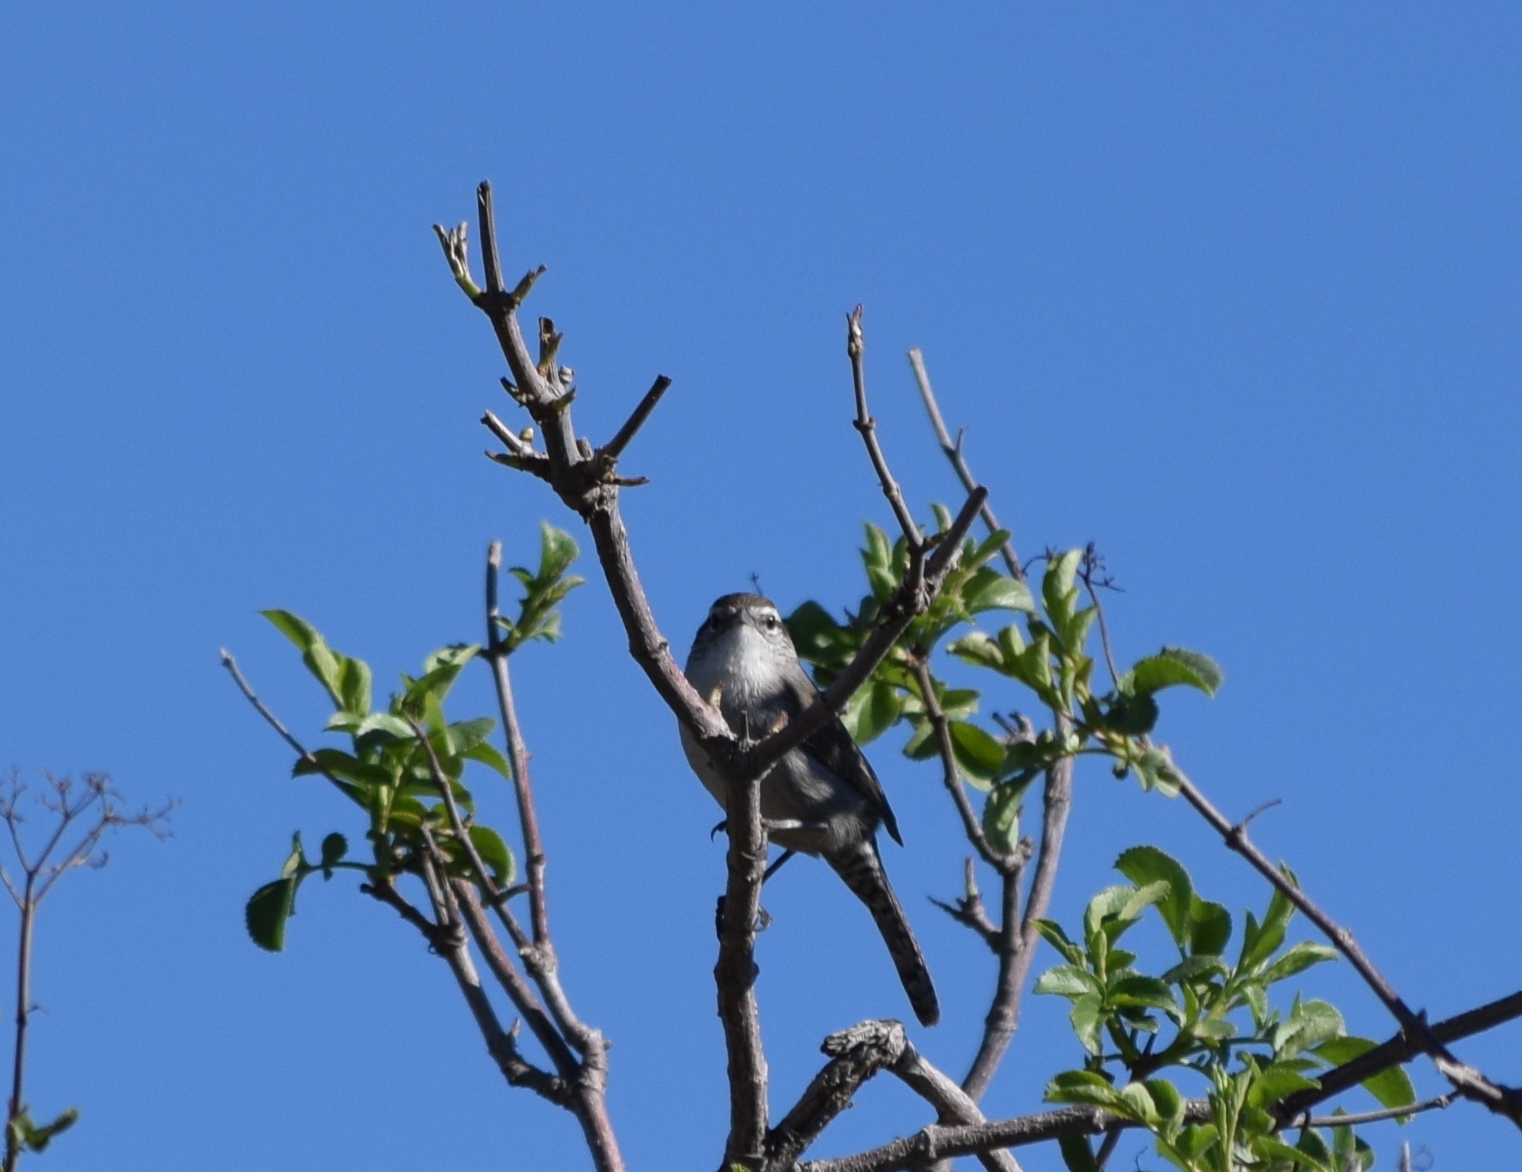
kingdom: Animalia
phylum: Chordata
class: Aves
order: Passeriformes
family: Troglodytidae
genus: Thryomanes
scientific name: Thryomanes bewickii
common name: Bewick's wren
